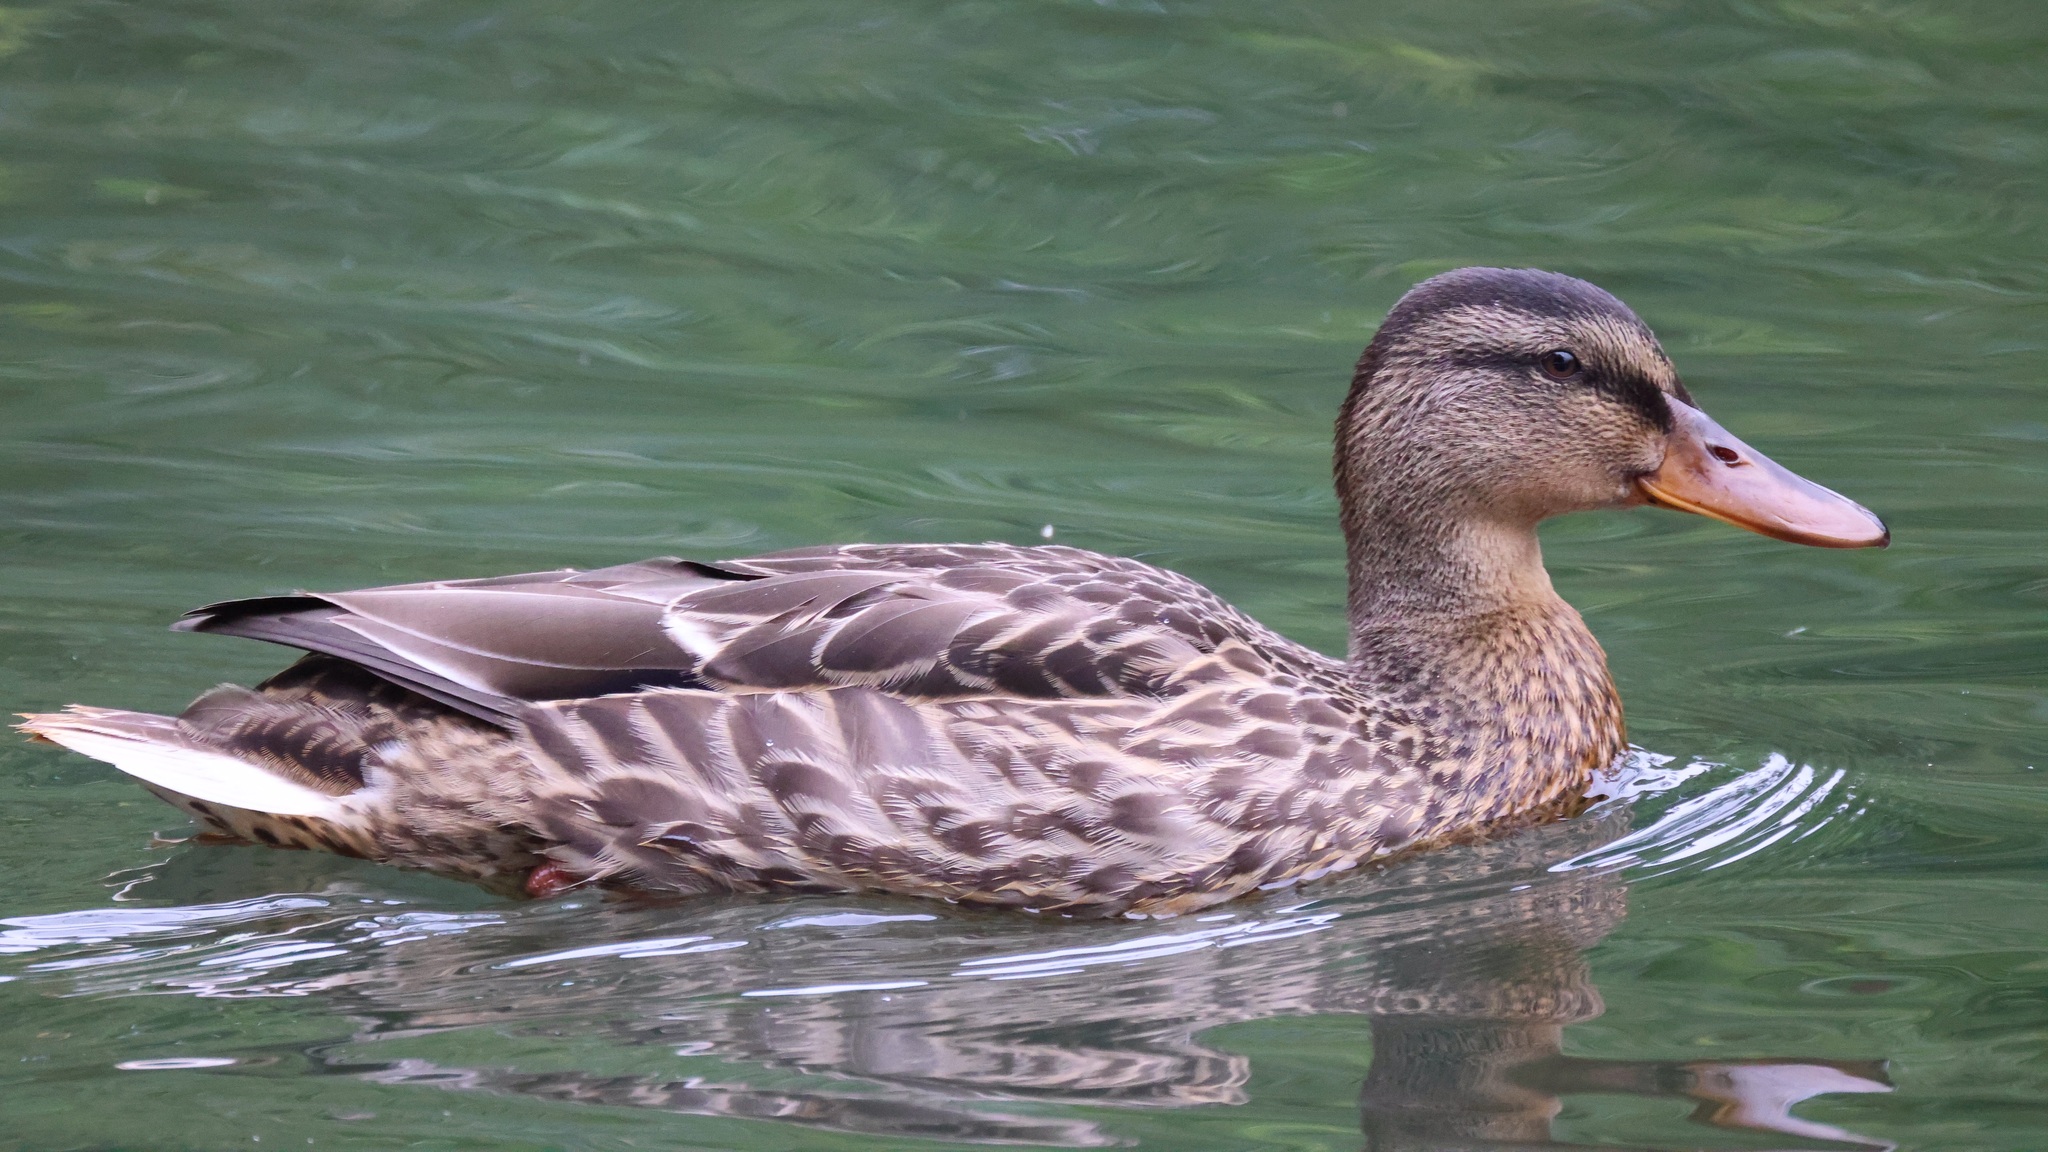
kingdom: Animalia
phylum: Chordata
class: Aves
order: Anseriformes
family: Anatidae
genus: Anas
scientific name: Anas platyrhynchos
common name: Mallard
